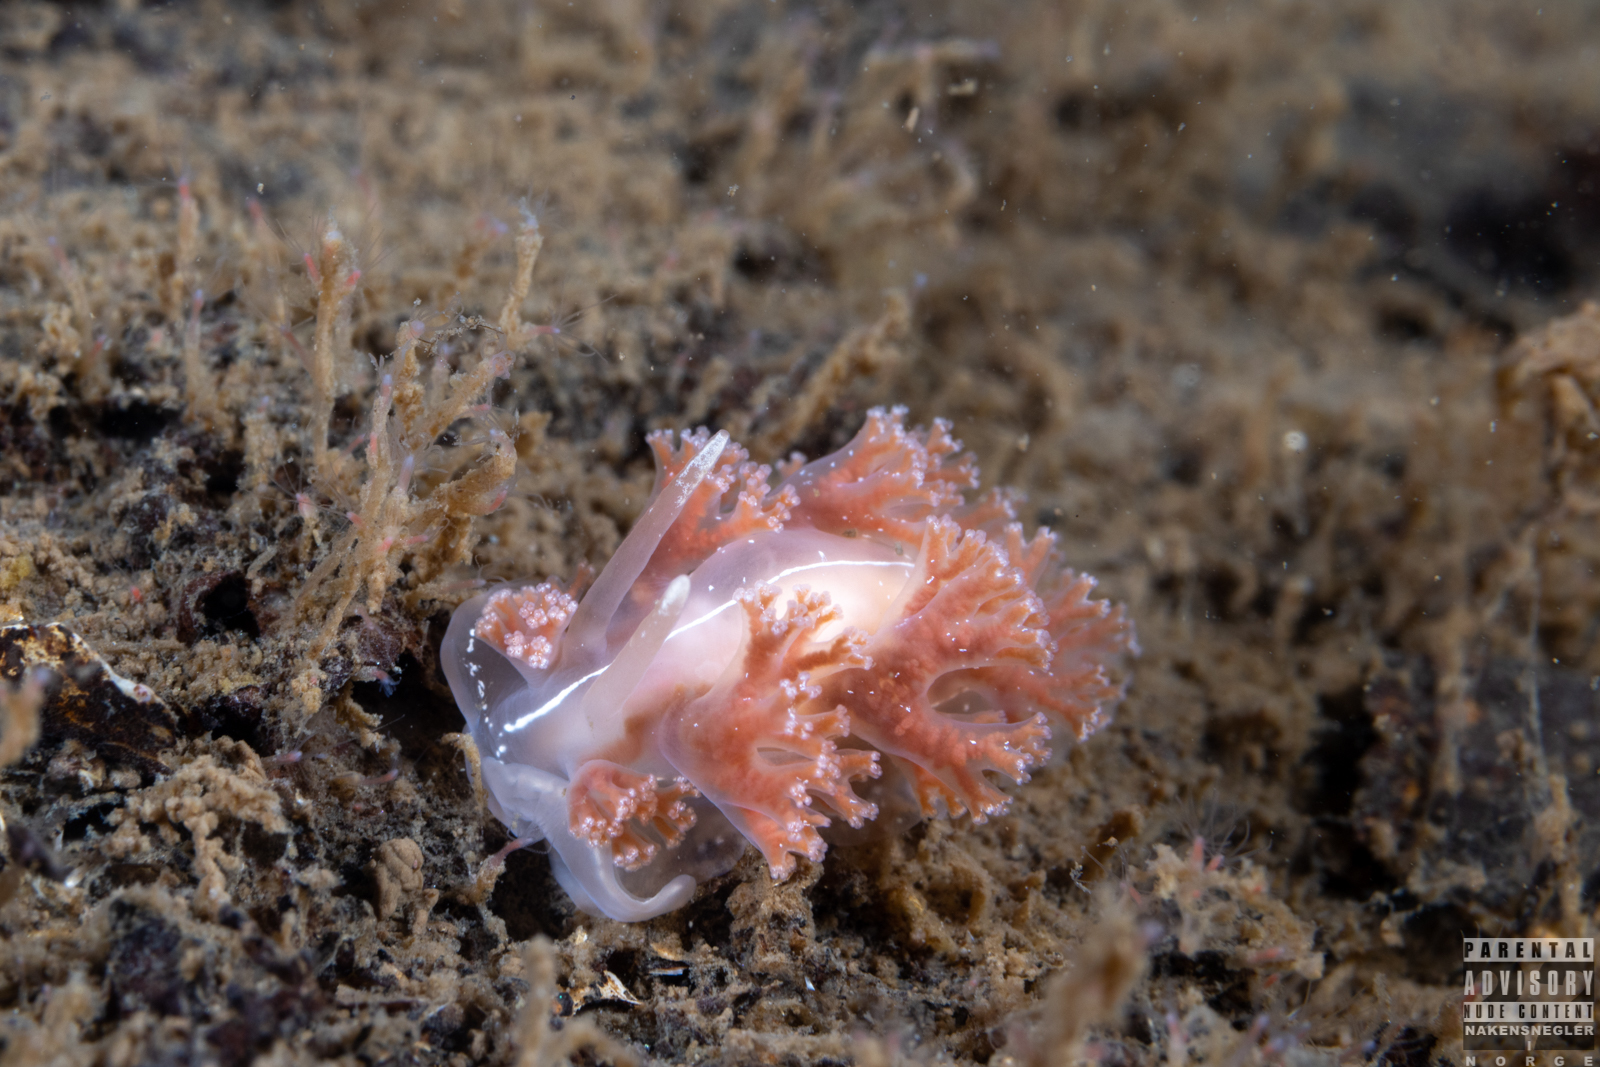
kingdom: Animalia
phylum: Mollusca
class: Gastropoda
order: Nudibranchia
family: Heroidae
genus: Hero
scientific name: Hero formosa
